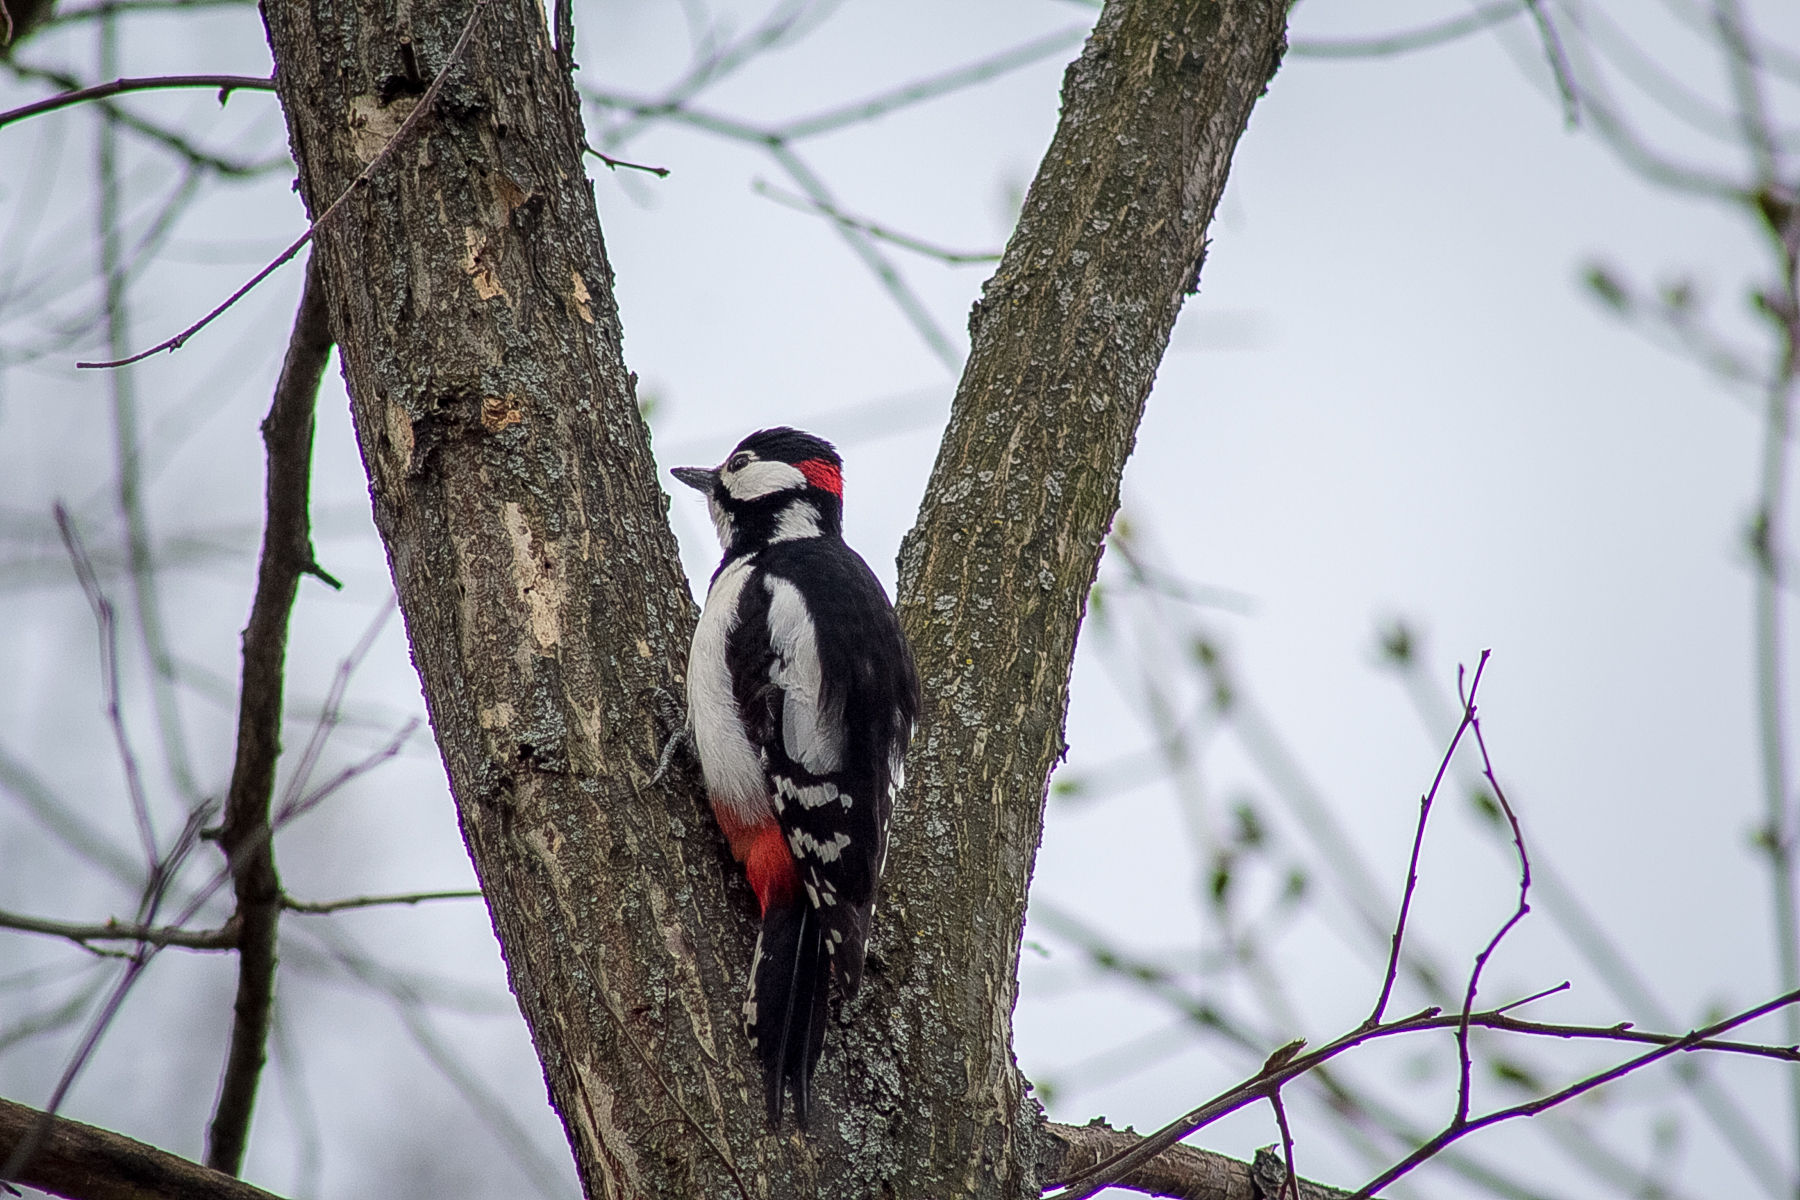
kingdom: Animalia
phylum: Chordata
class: Aves
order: Piciformes
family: Picidae
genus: Dendrocopos
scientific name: Dendrocopos major
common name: Great spotted woodpecker
